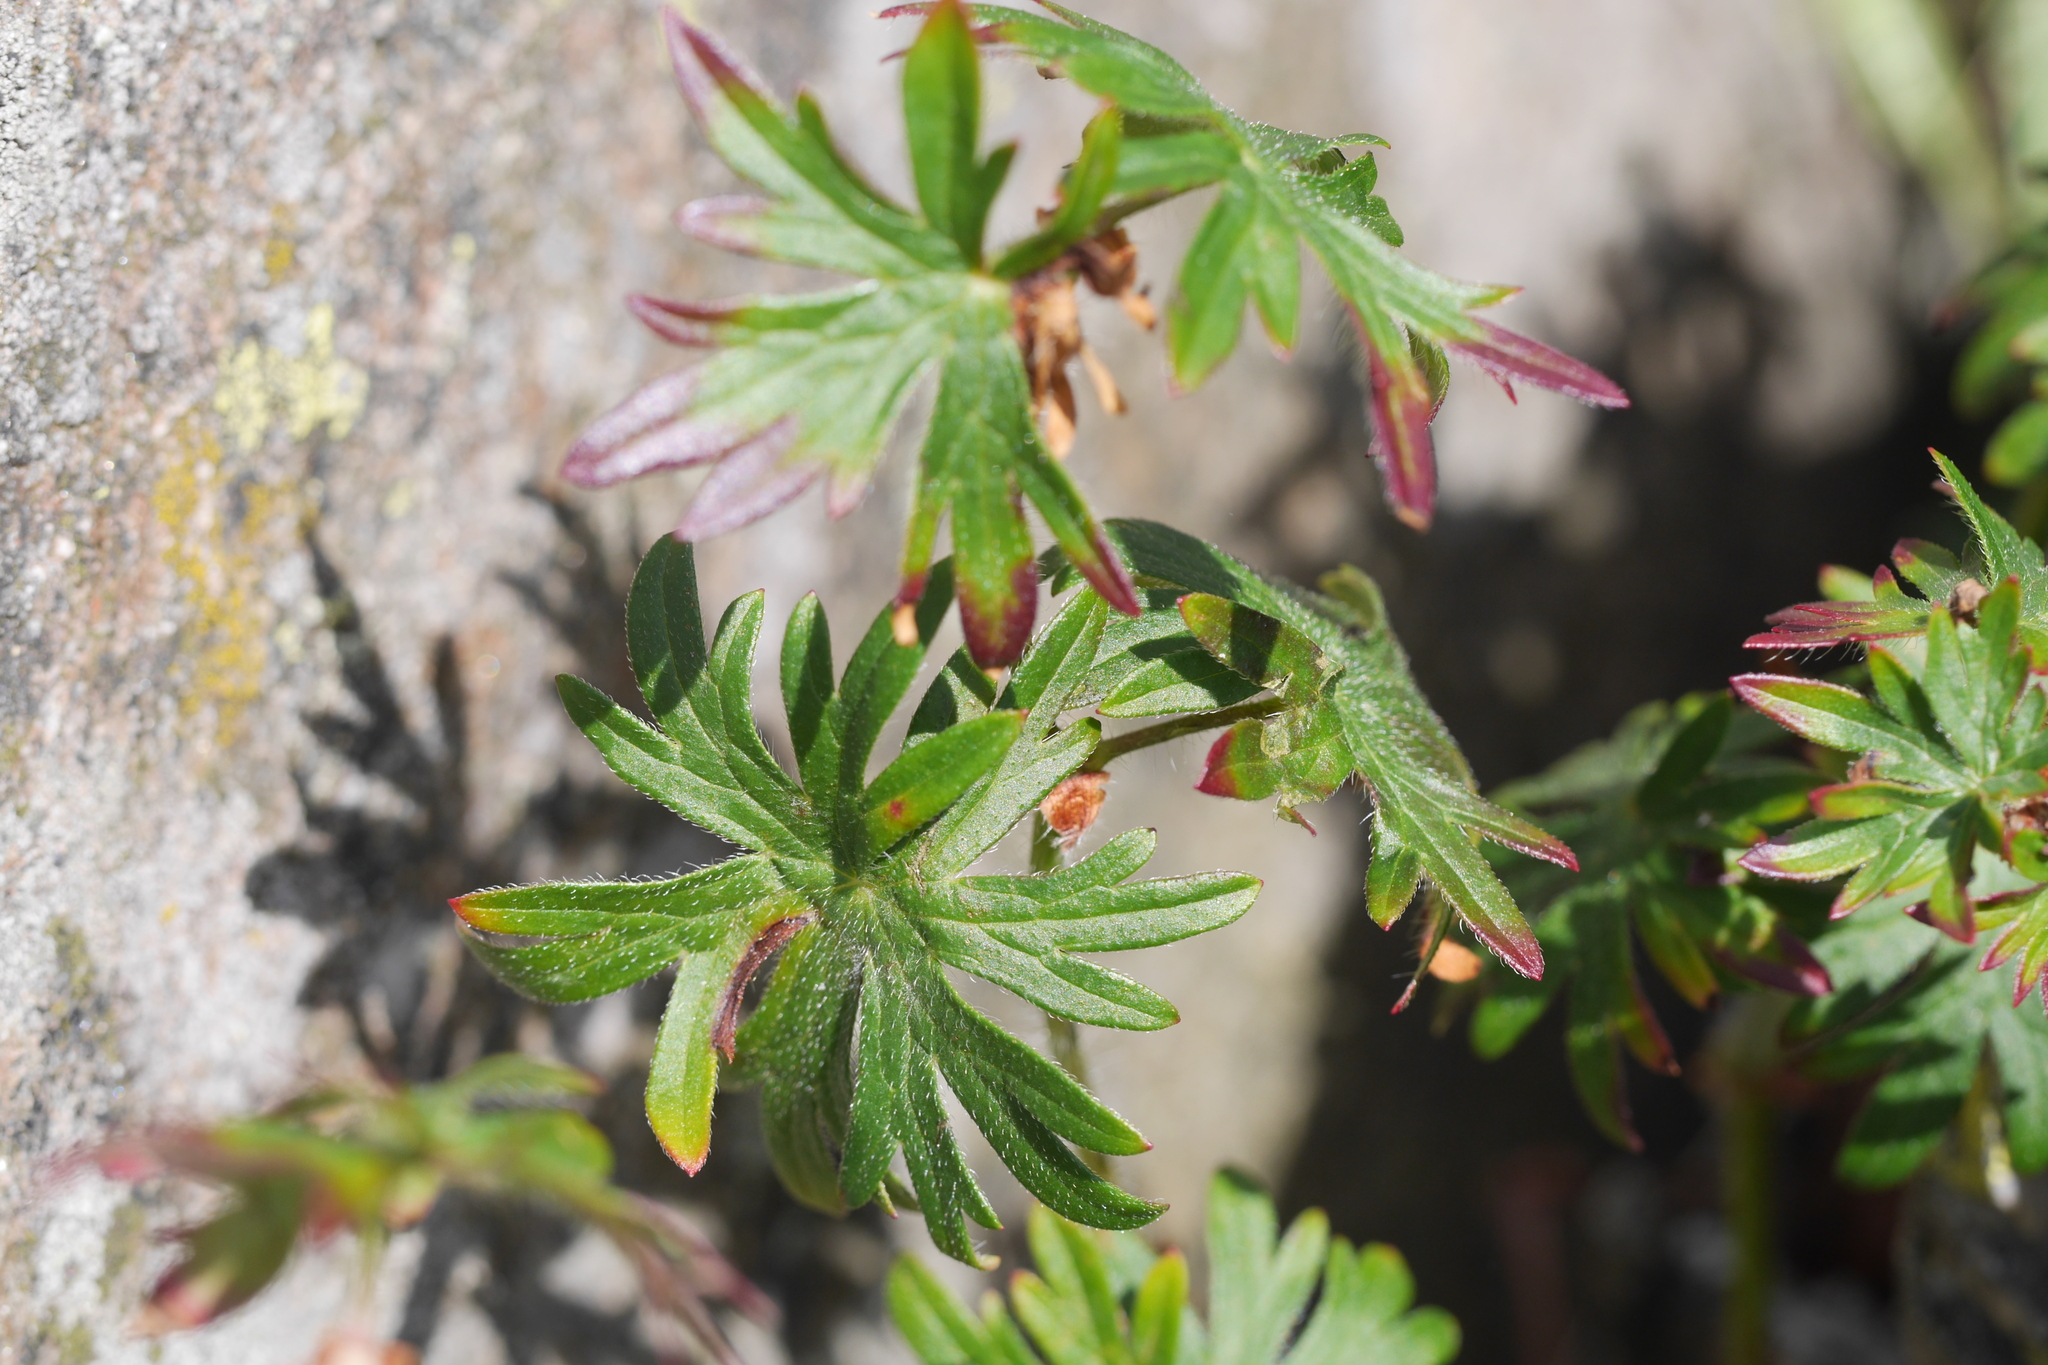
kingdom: Plantae
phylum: Tracheophyta
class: Magnoliopsida
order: Geraniales
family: Geraniaceae
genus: Geranium
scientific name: Geranium sanguineum
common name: Bloody crane's-bill
